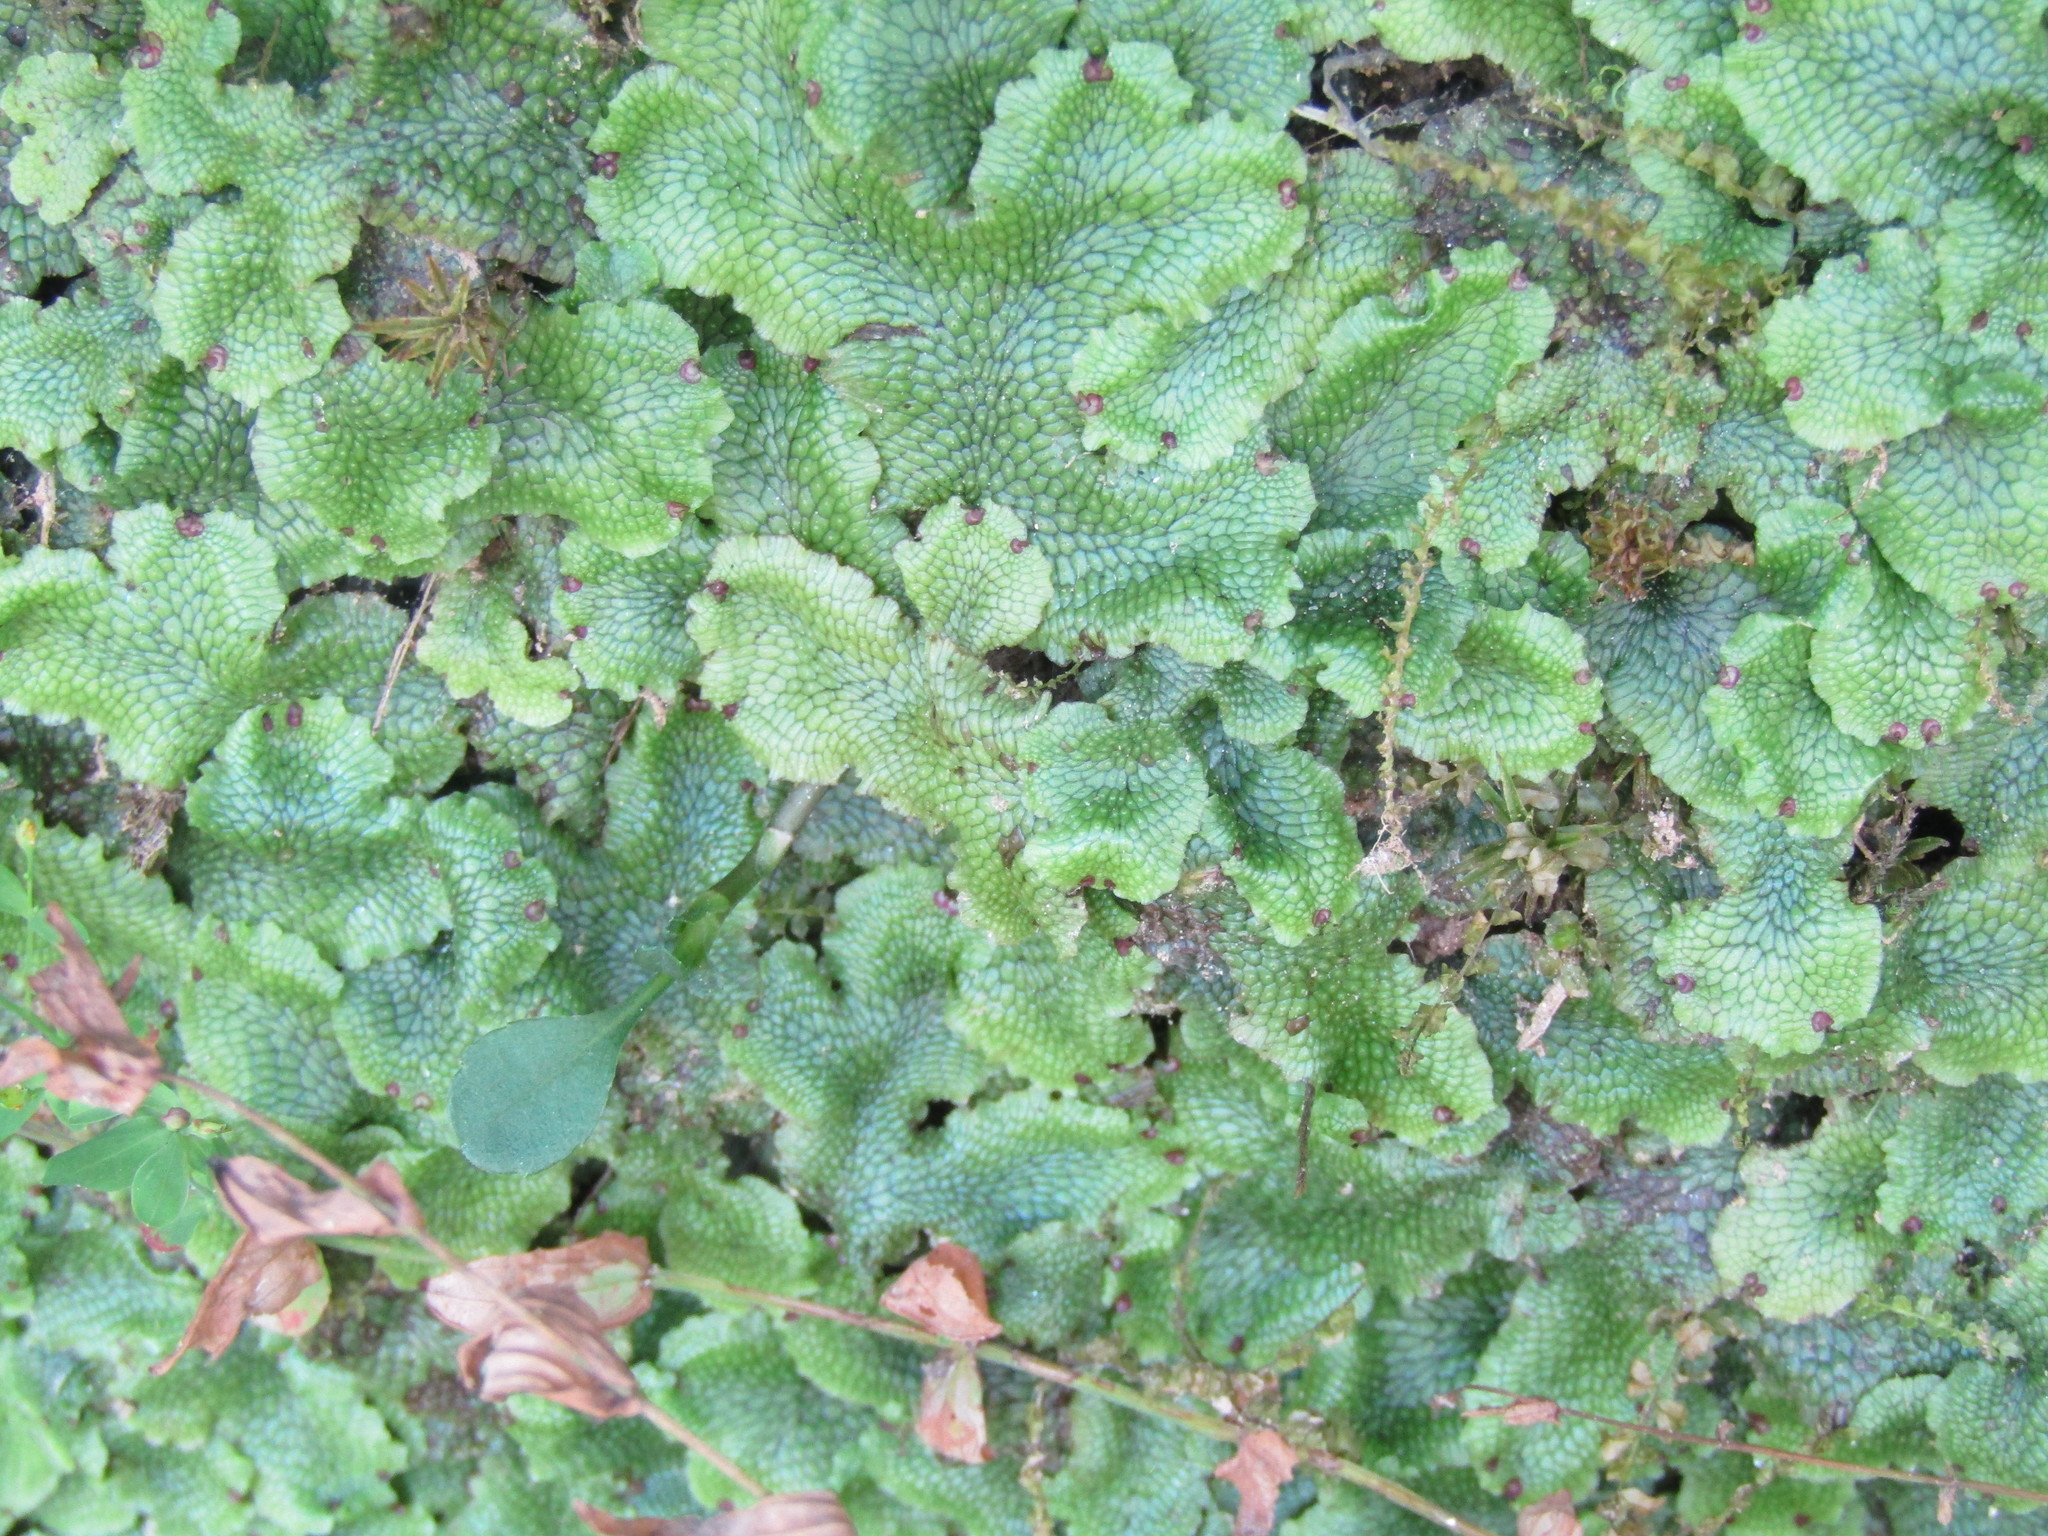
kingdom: Plantae
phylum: Marchantiophyta
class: Marchantiopsida
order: Marchantiales
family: Conocephalaceae
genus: Conocephalum
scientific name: Conocephalum salebrosum
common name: Cat-tongue liverwort
